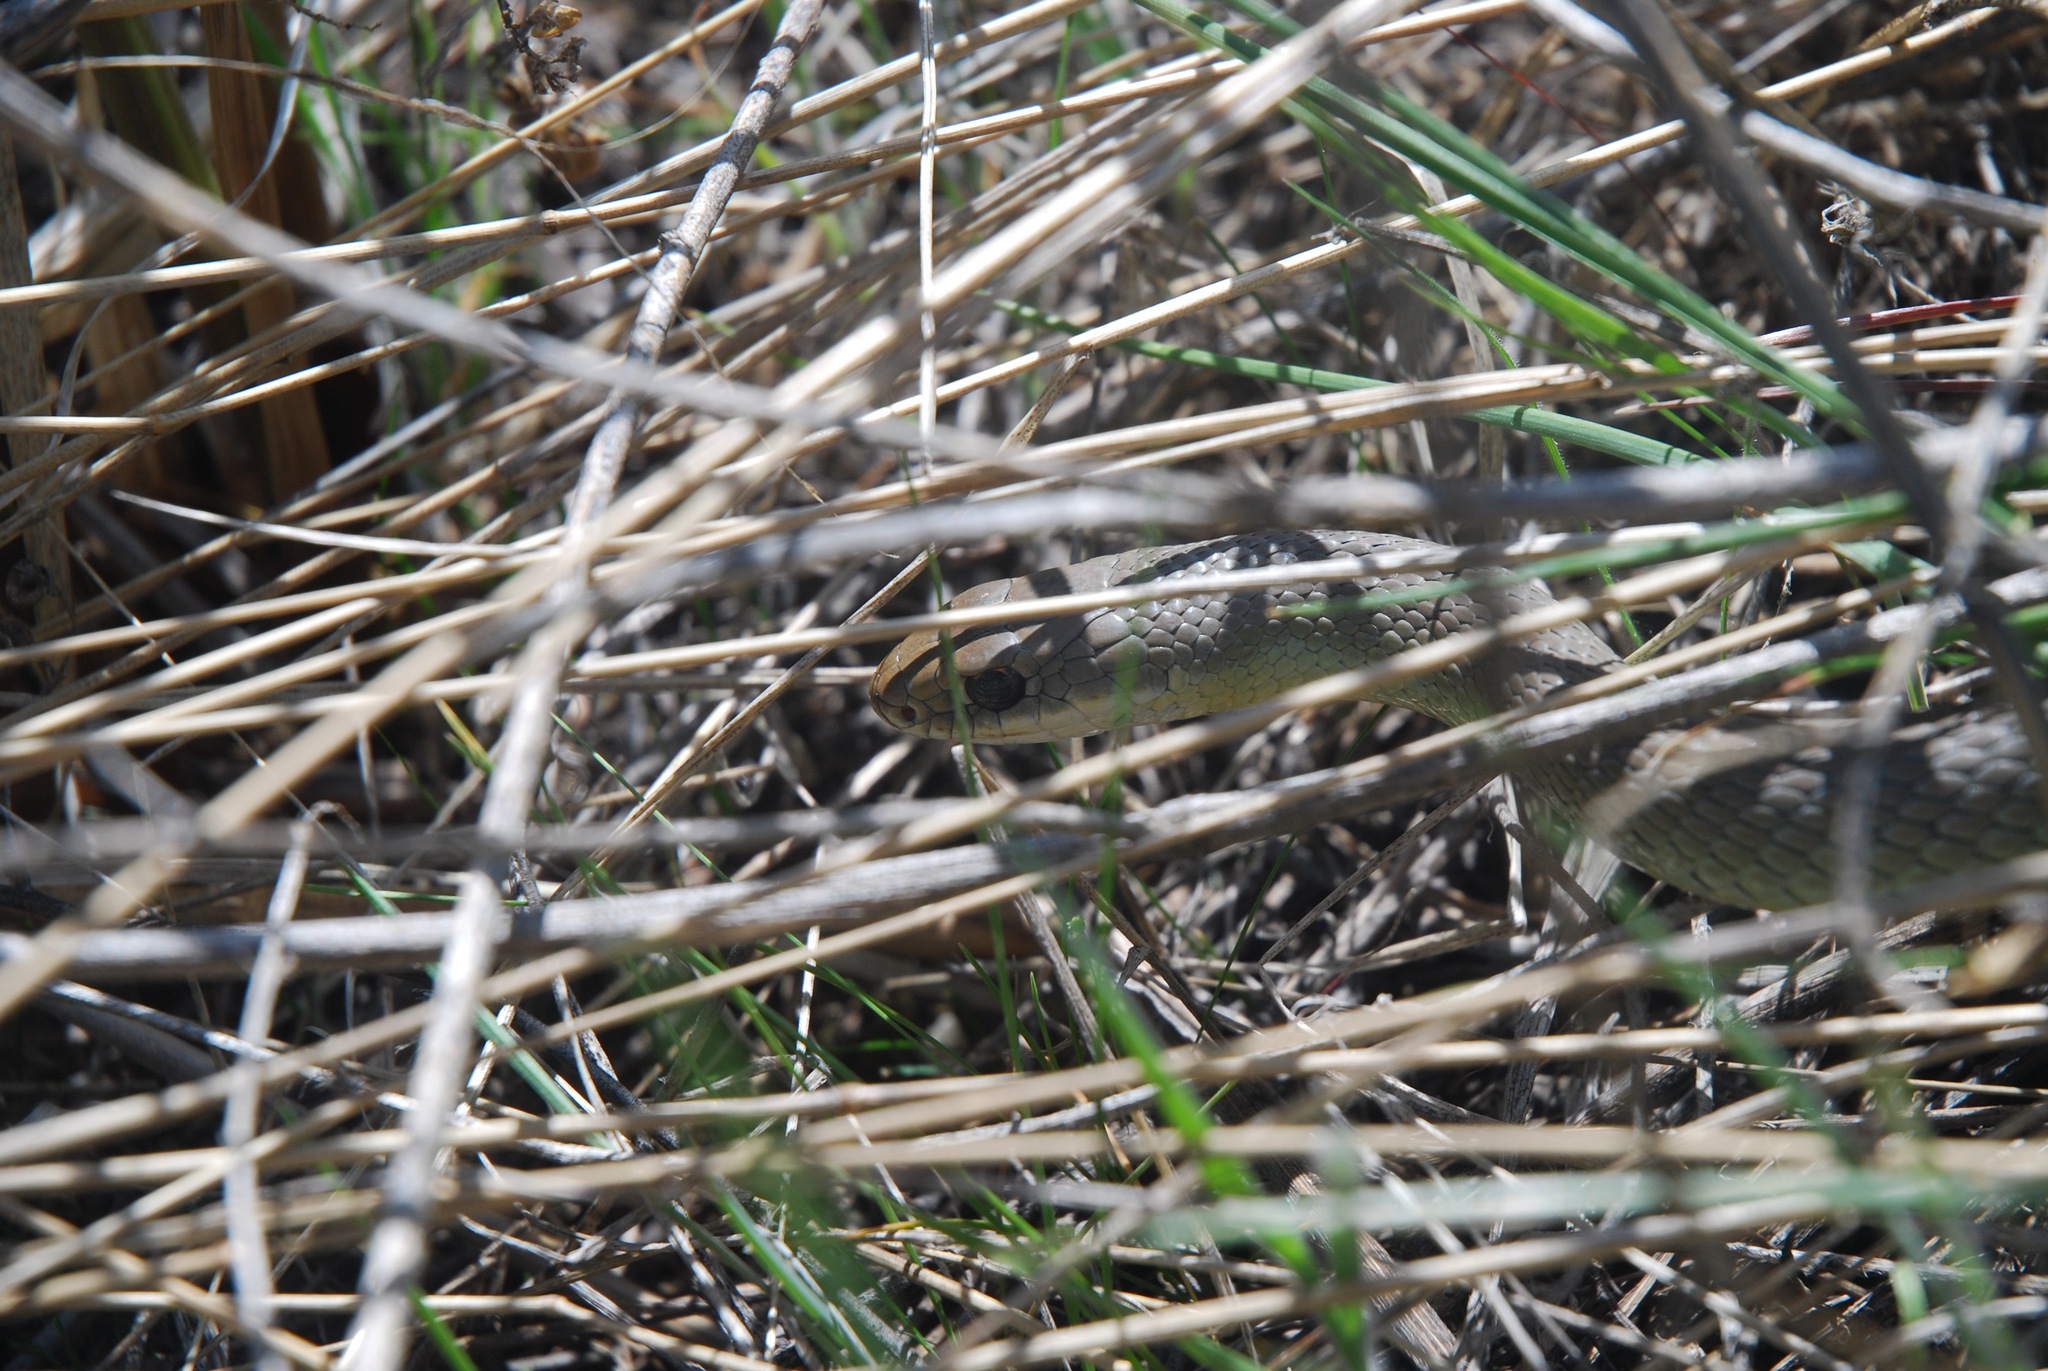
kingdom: Animalia
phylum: Chordata
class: Squamata
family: Colubridae
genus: Coluber
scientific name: Coluber constrictor
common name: Eastern racer
